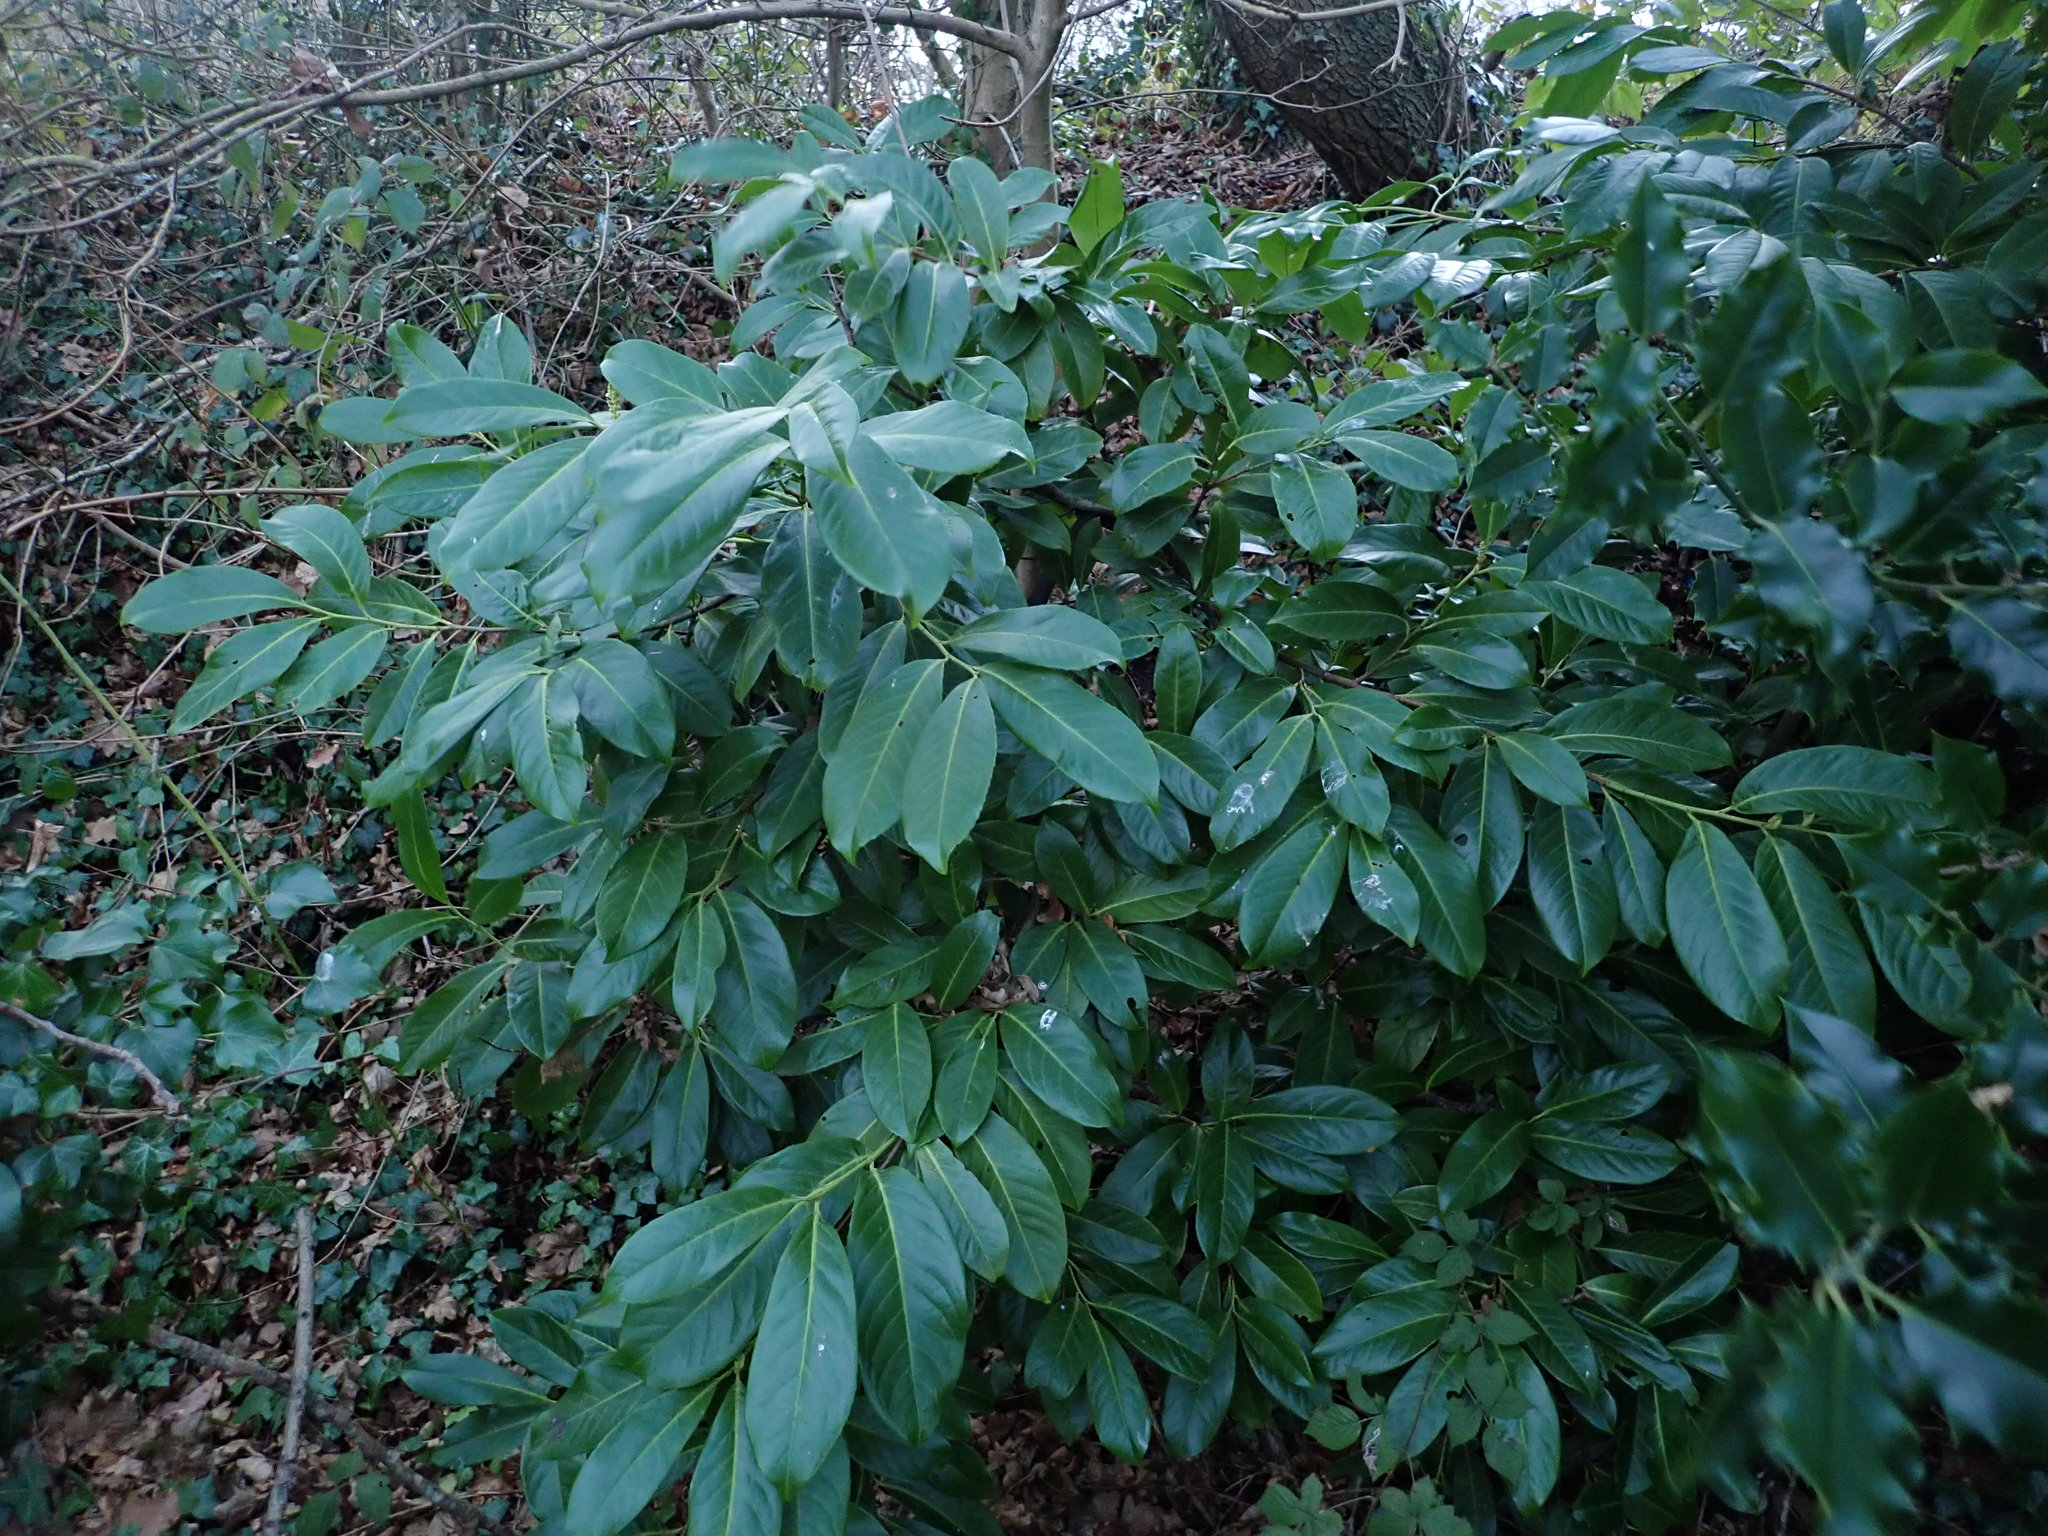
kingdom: Plantae
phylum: Tracheophyta
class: Magnoliopsida
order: Rosales
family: Rosaceae
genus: Prunus
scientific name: Prunus laurocerasus
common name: Cherry laurel
